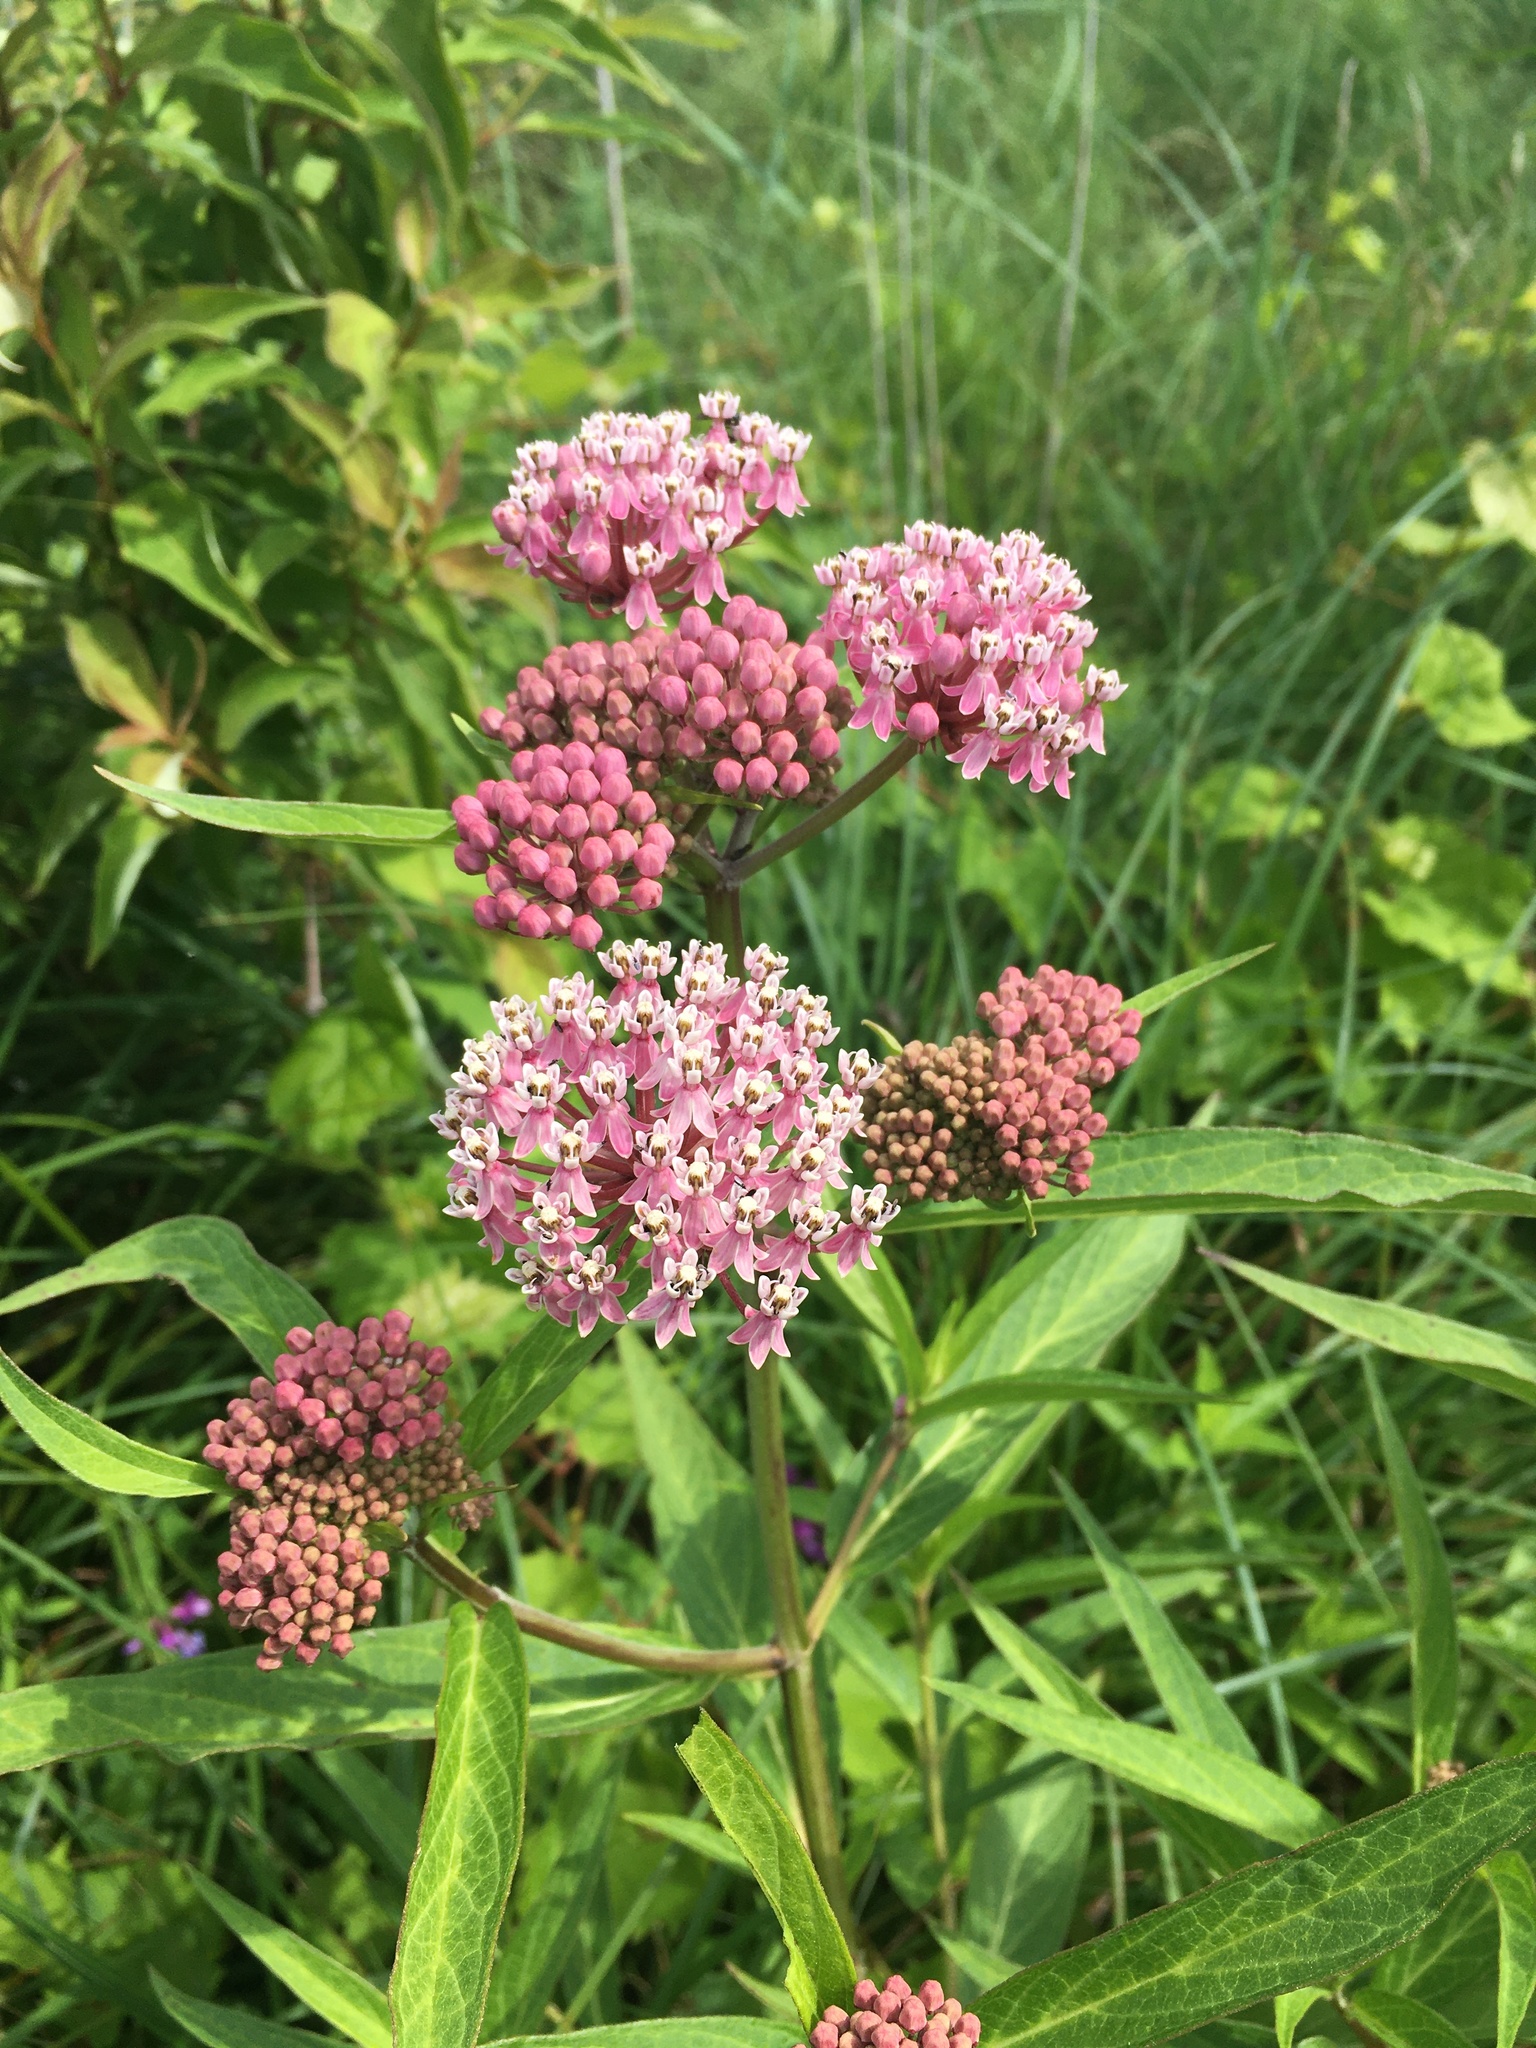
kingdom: Plantae
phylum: Tracheophyta
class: Magnoliopsida
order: Gentianales
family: Apocynaceae
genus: Asclepias
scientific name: Asclepias incarnata
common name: Swamp milkweed
